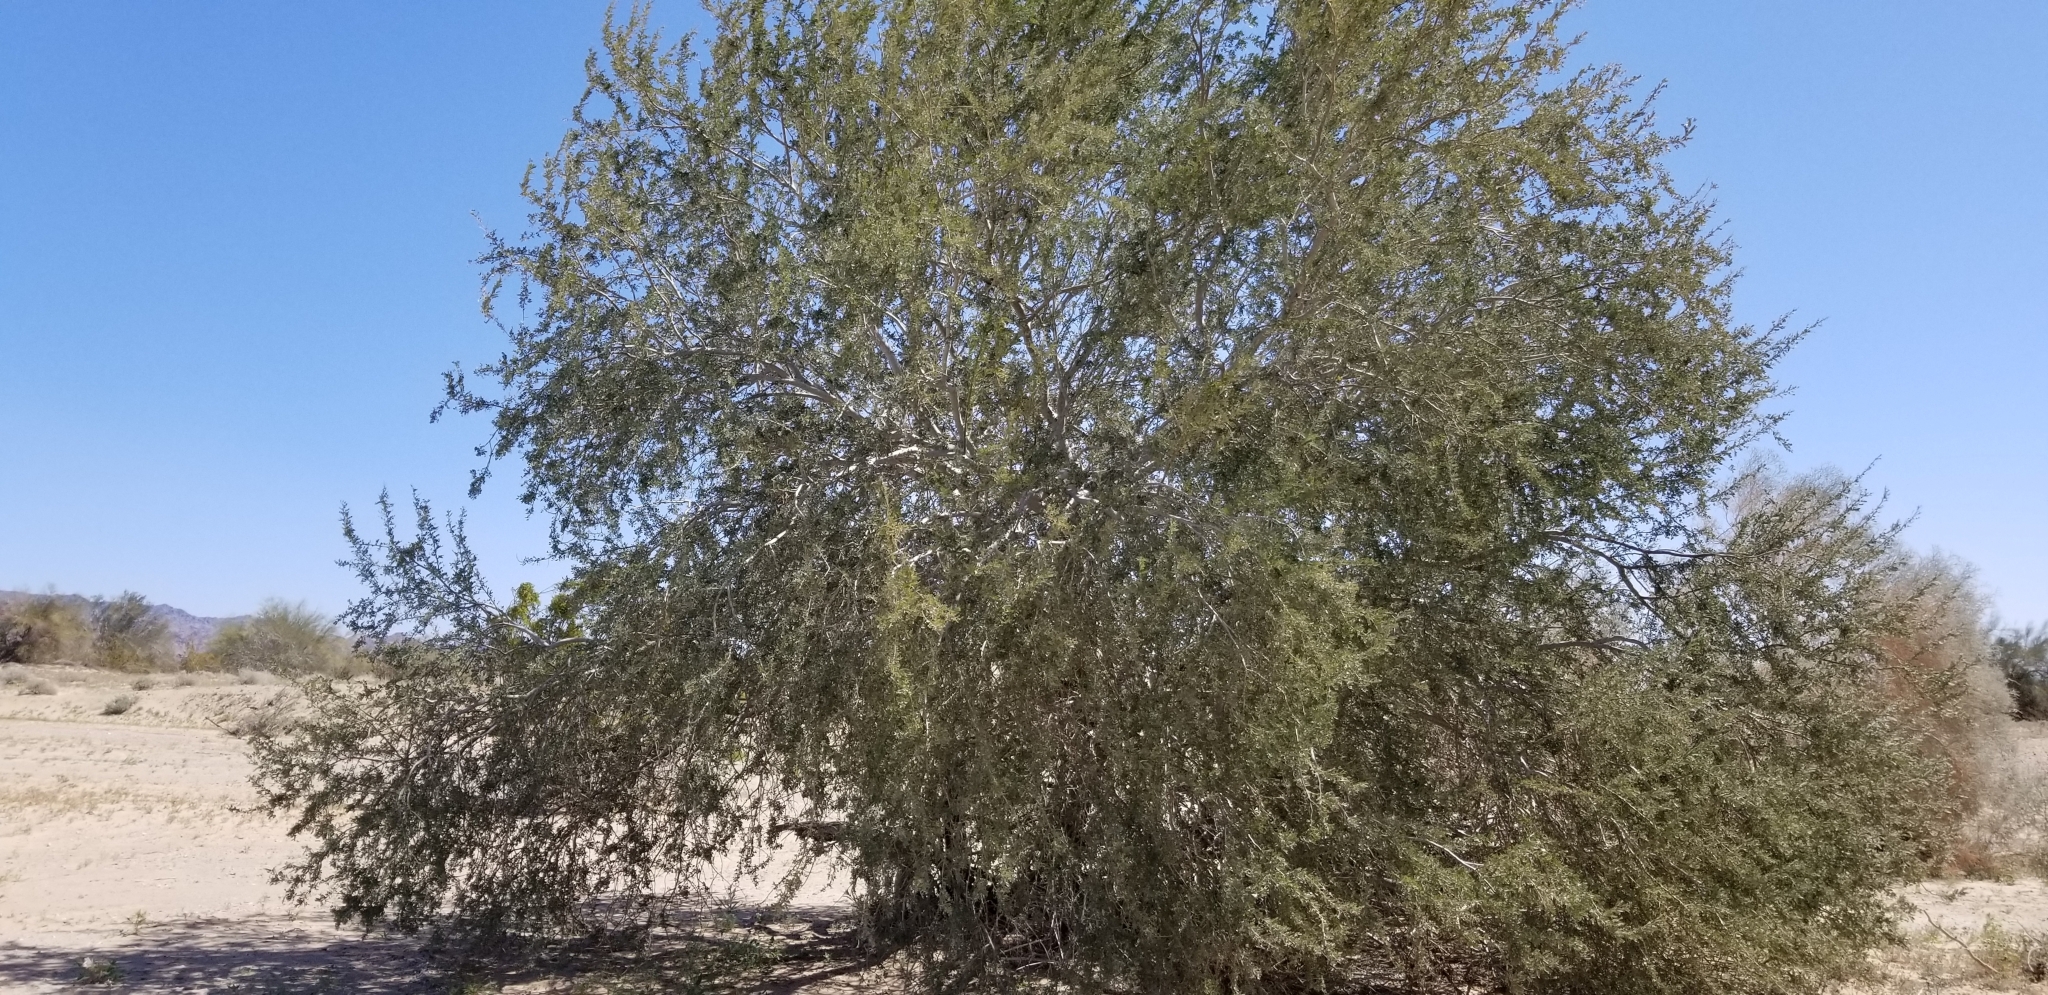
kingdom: Plantae
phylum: Tracheophyta
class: Magnoliopsida
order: Fabales
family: Fabaceae
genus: Olneya
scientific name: Olneya tesota
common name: Desert ironwood
